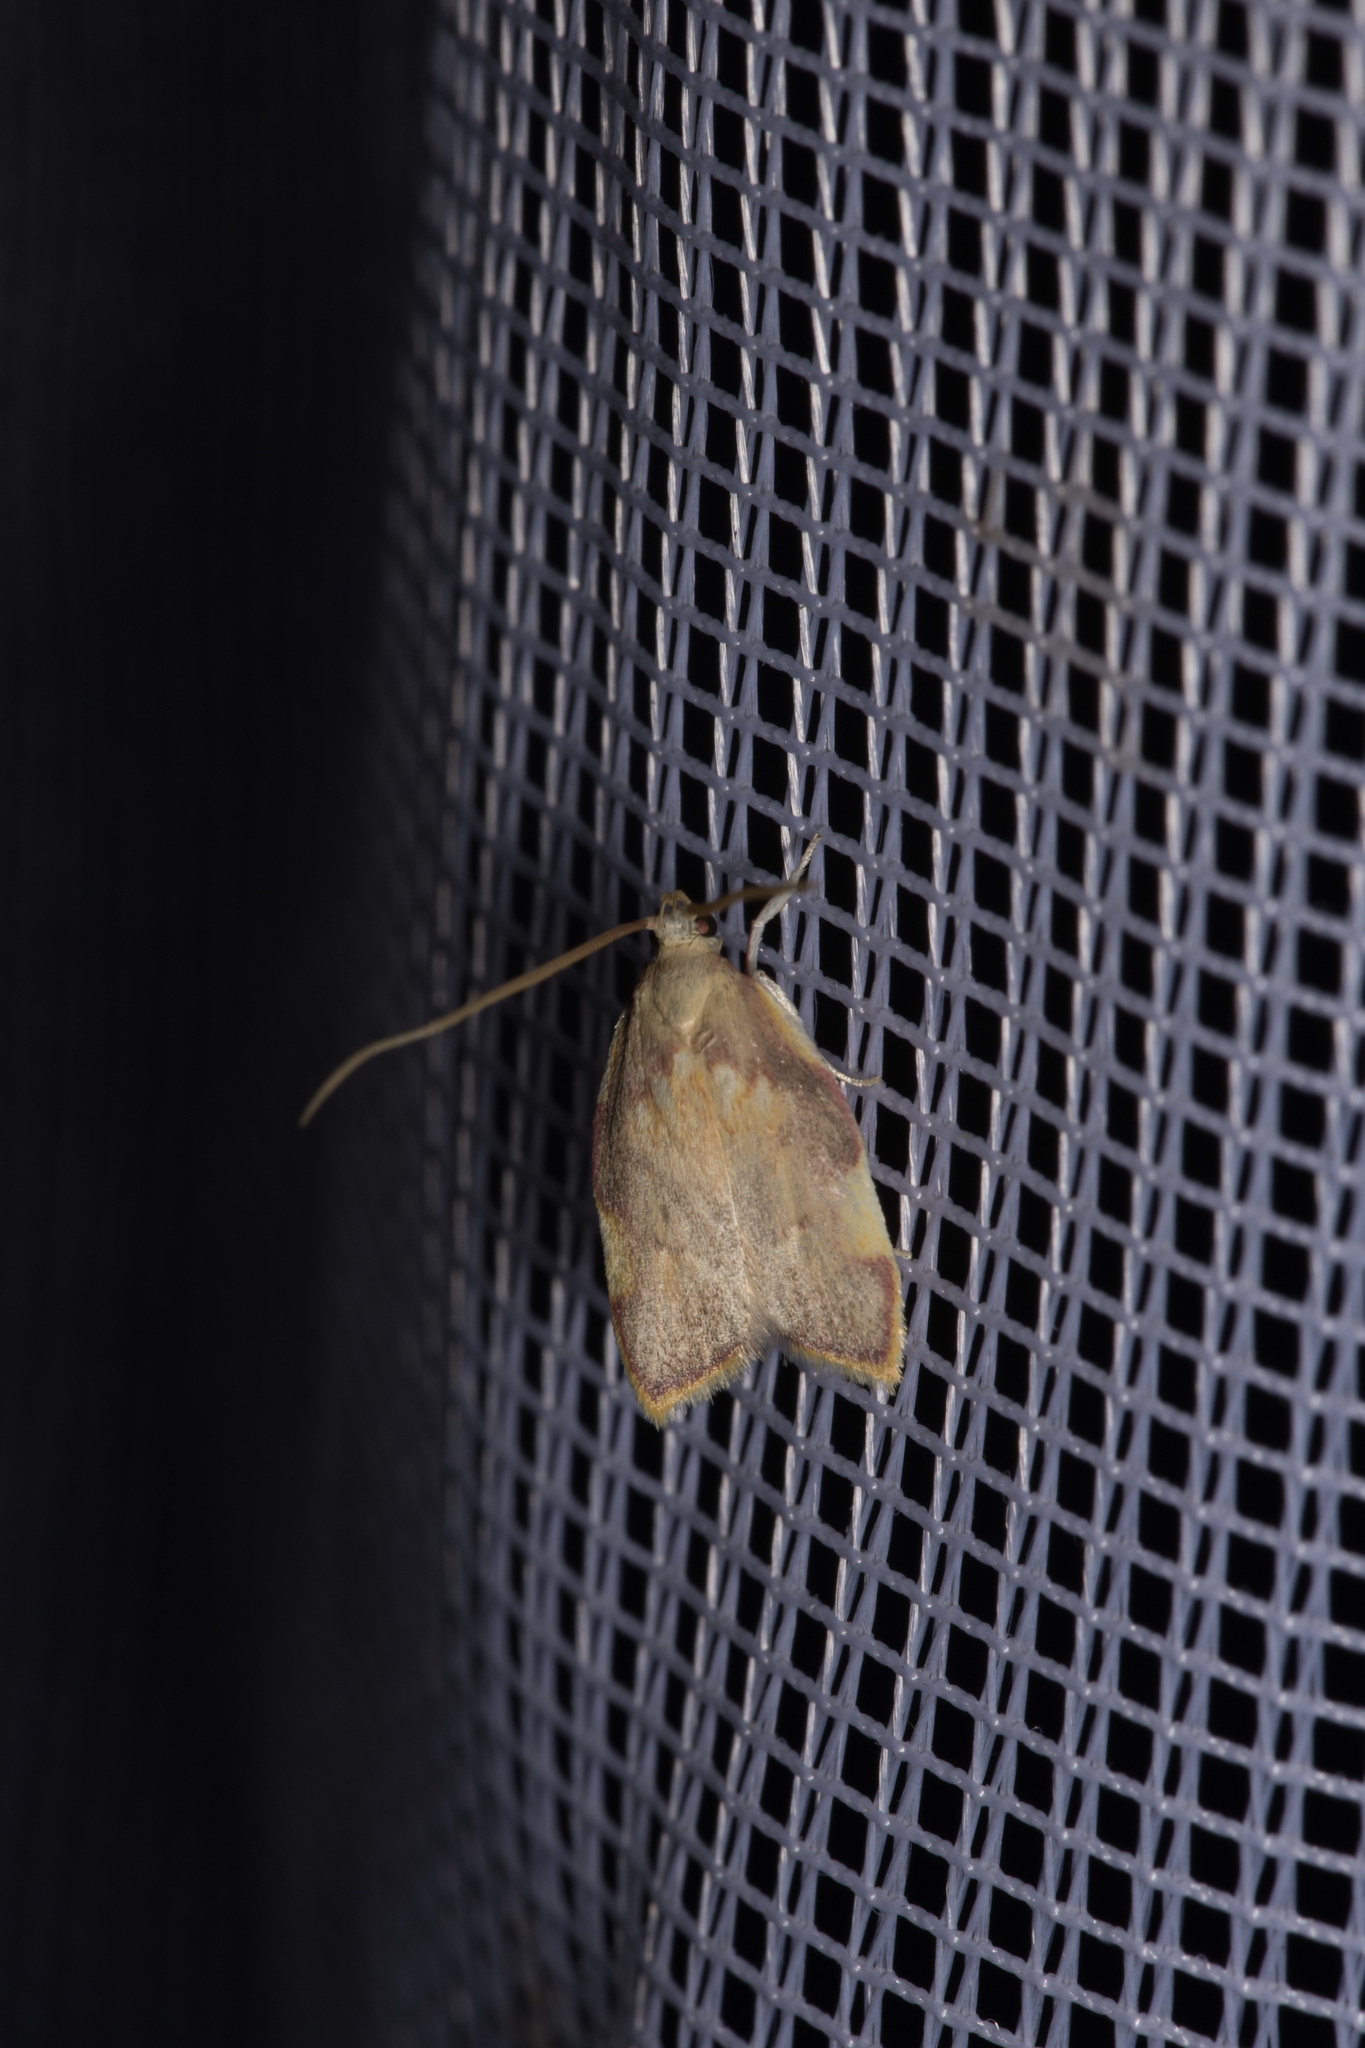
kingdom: Animalia
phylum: Arthropoda
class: Insecta
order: Lepidoptera
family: Peleopodidae
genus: Carcina
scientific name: Carcina quercana
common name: Moth
